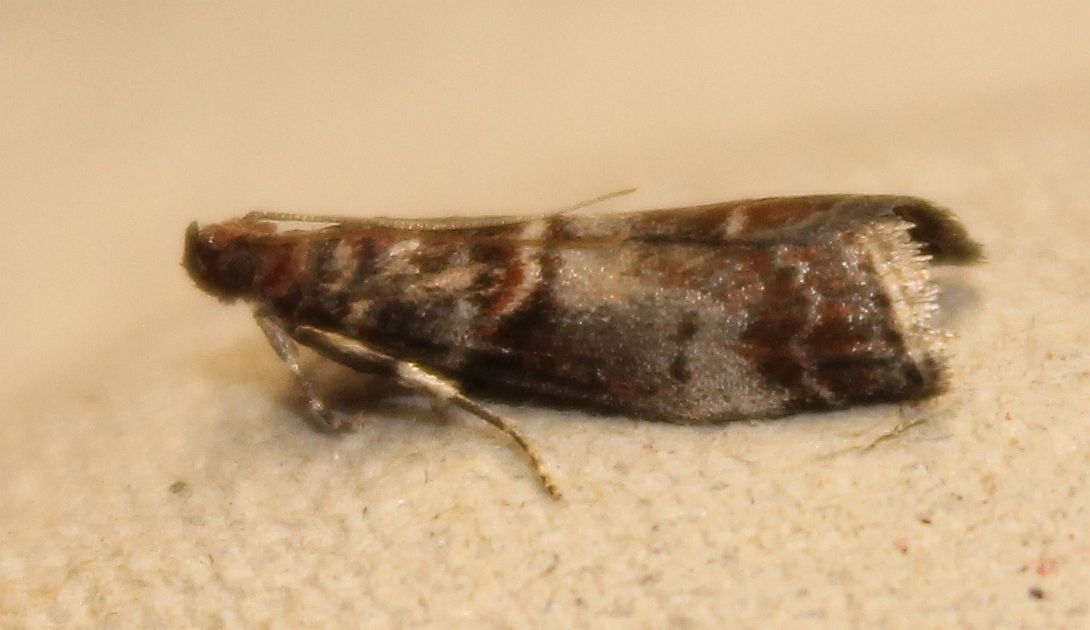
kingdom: Animalia
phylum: Arthropoda
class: Insecta
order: Lepidoptera
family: Pyralidae
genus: Acrobasis
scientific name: Acrobasis advenella
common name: Grey knot-horn
